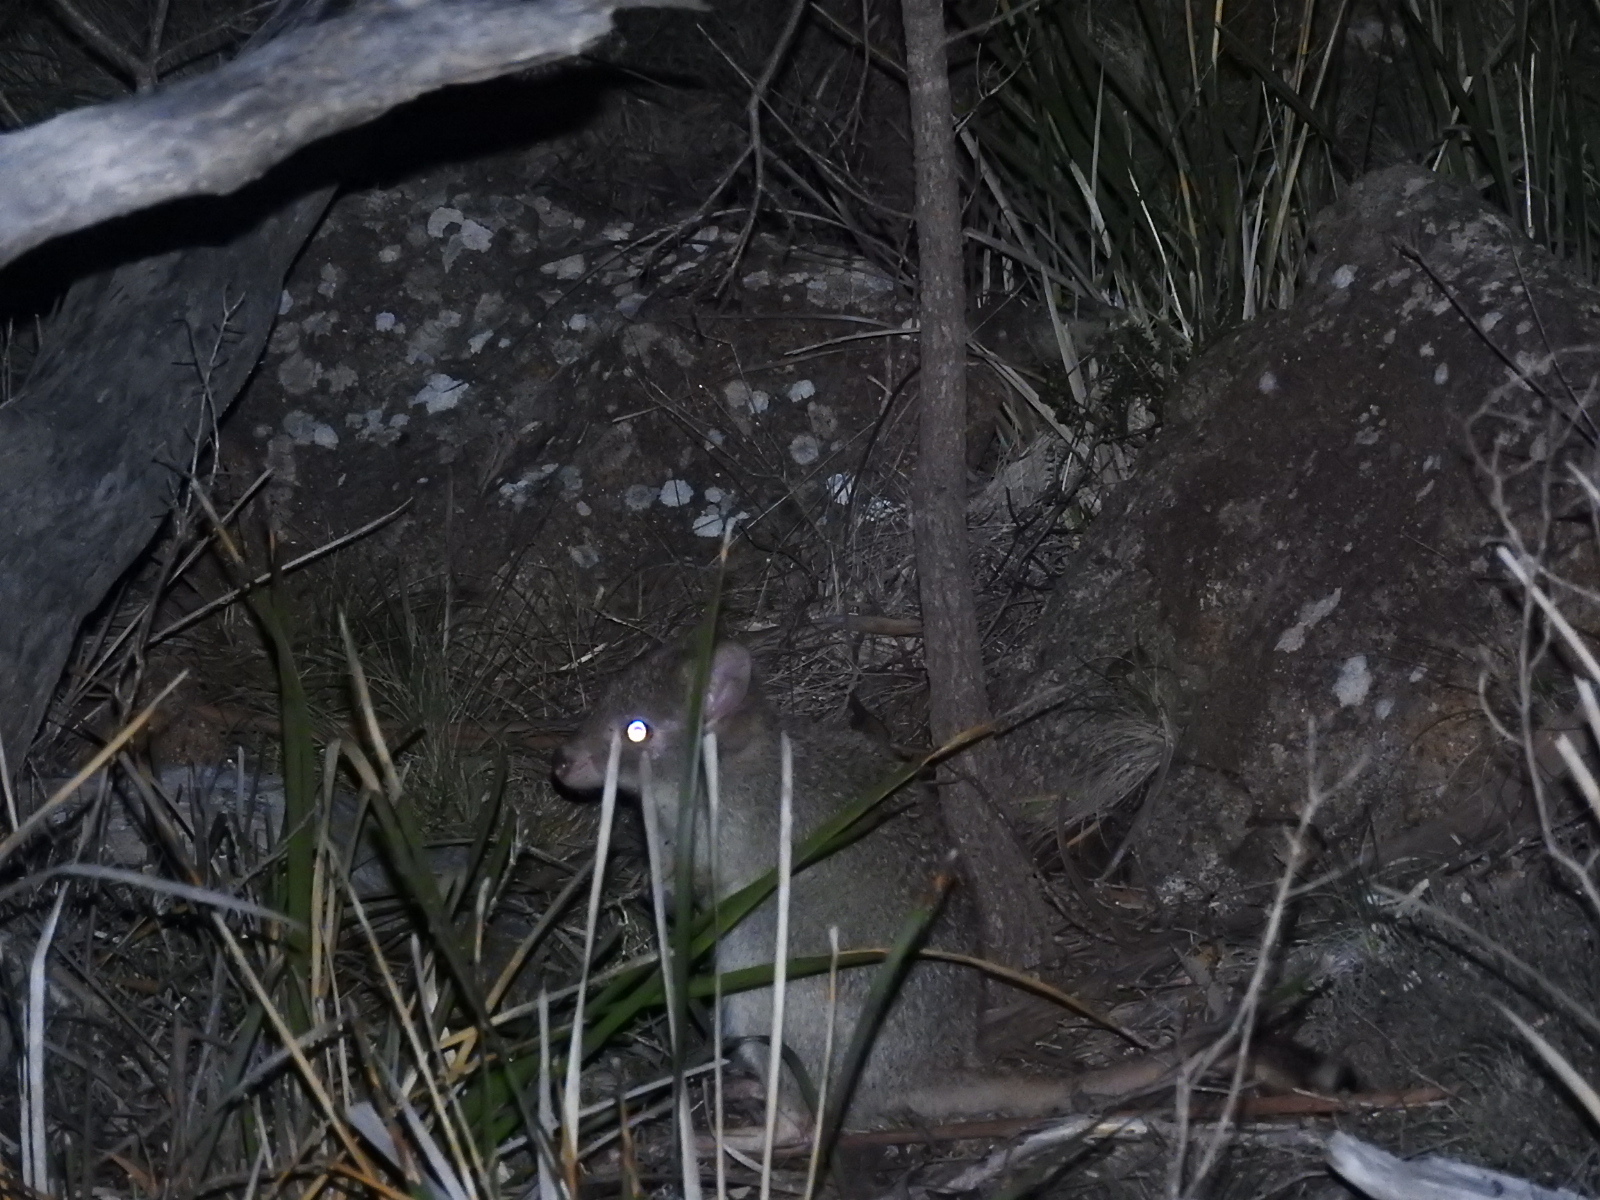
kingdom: Animalia
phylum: Chordata
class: Mammalia
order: Diprotodontia
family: Potoroidae
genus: Bettongia
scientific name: Bettongia gaimardi
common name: Eastern bettong
